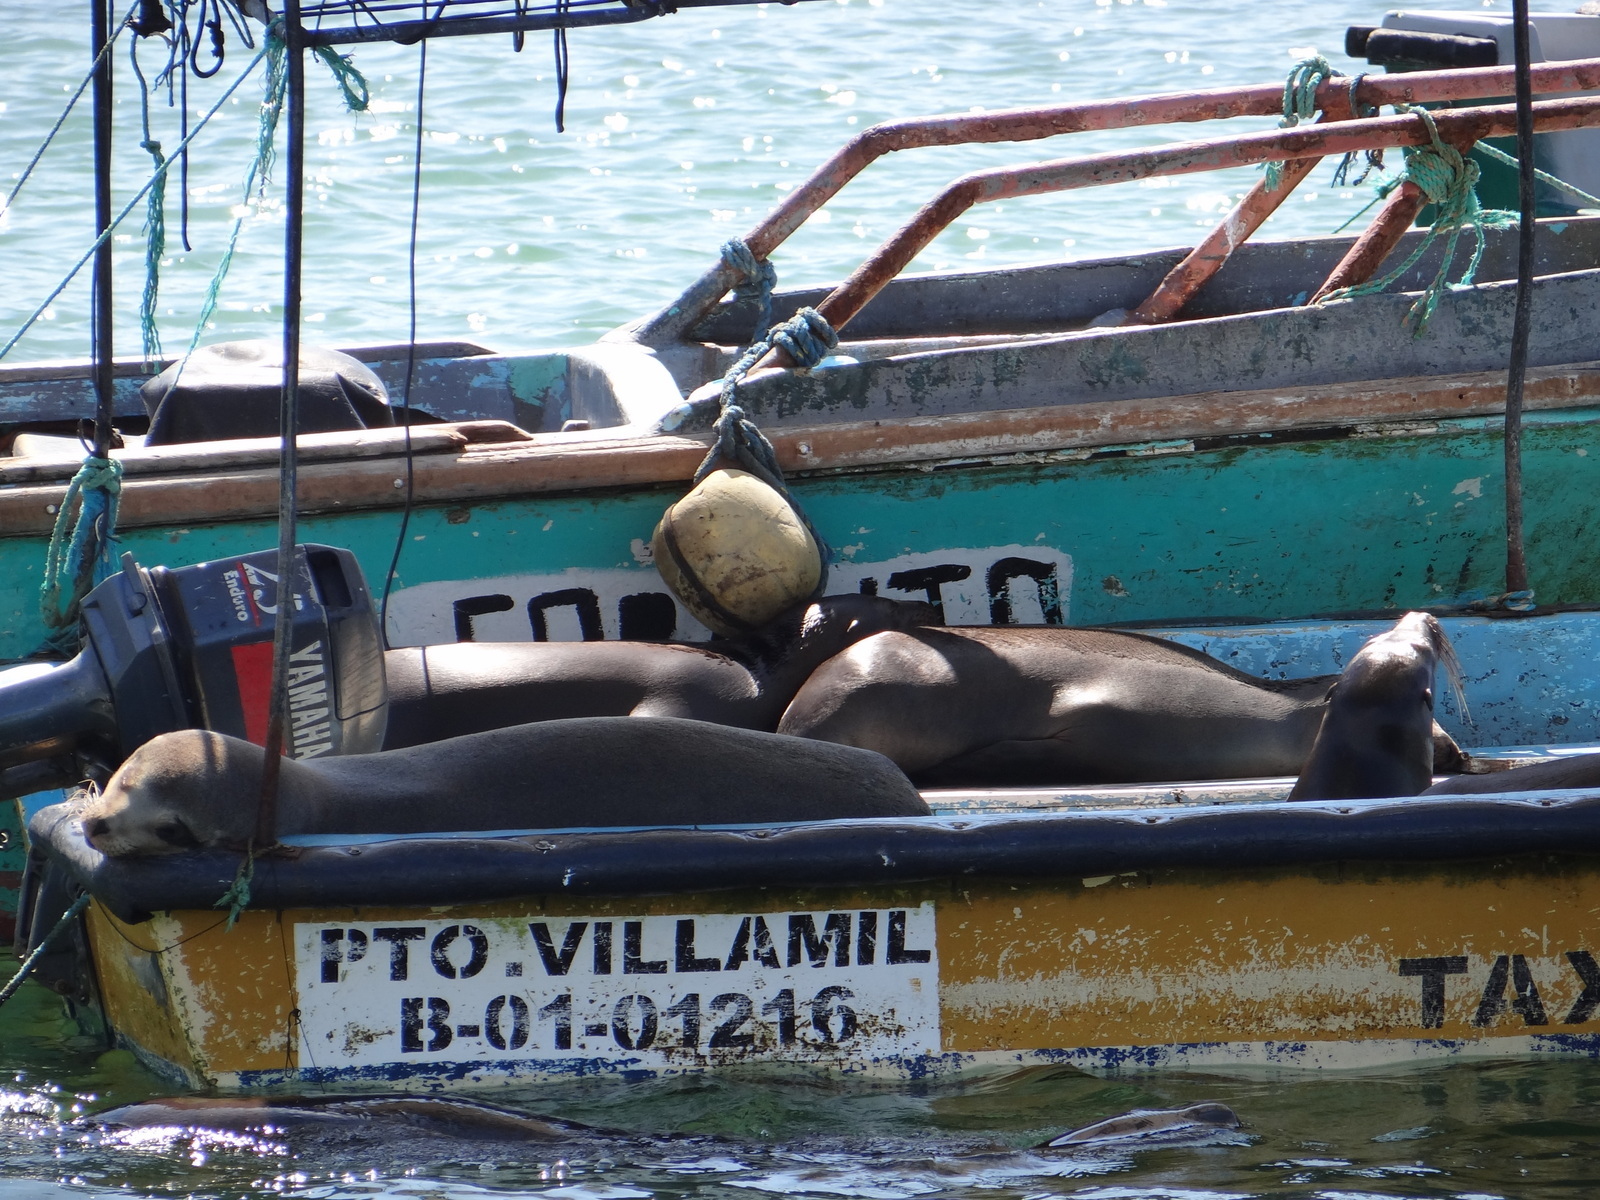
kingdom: Animalia
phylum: Chordata
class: Mammalia
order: Carnivora
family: Otariidae
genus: Zalophus
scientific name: Zalophus wollebaeki
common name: Galapagos sea lion
